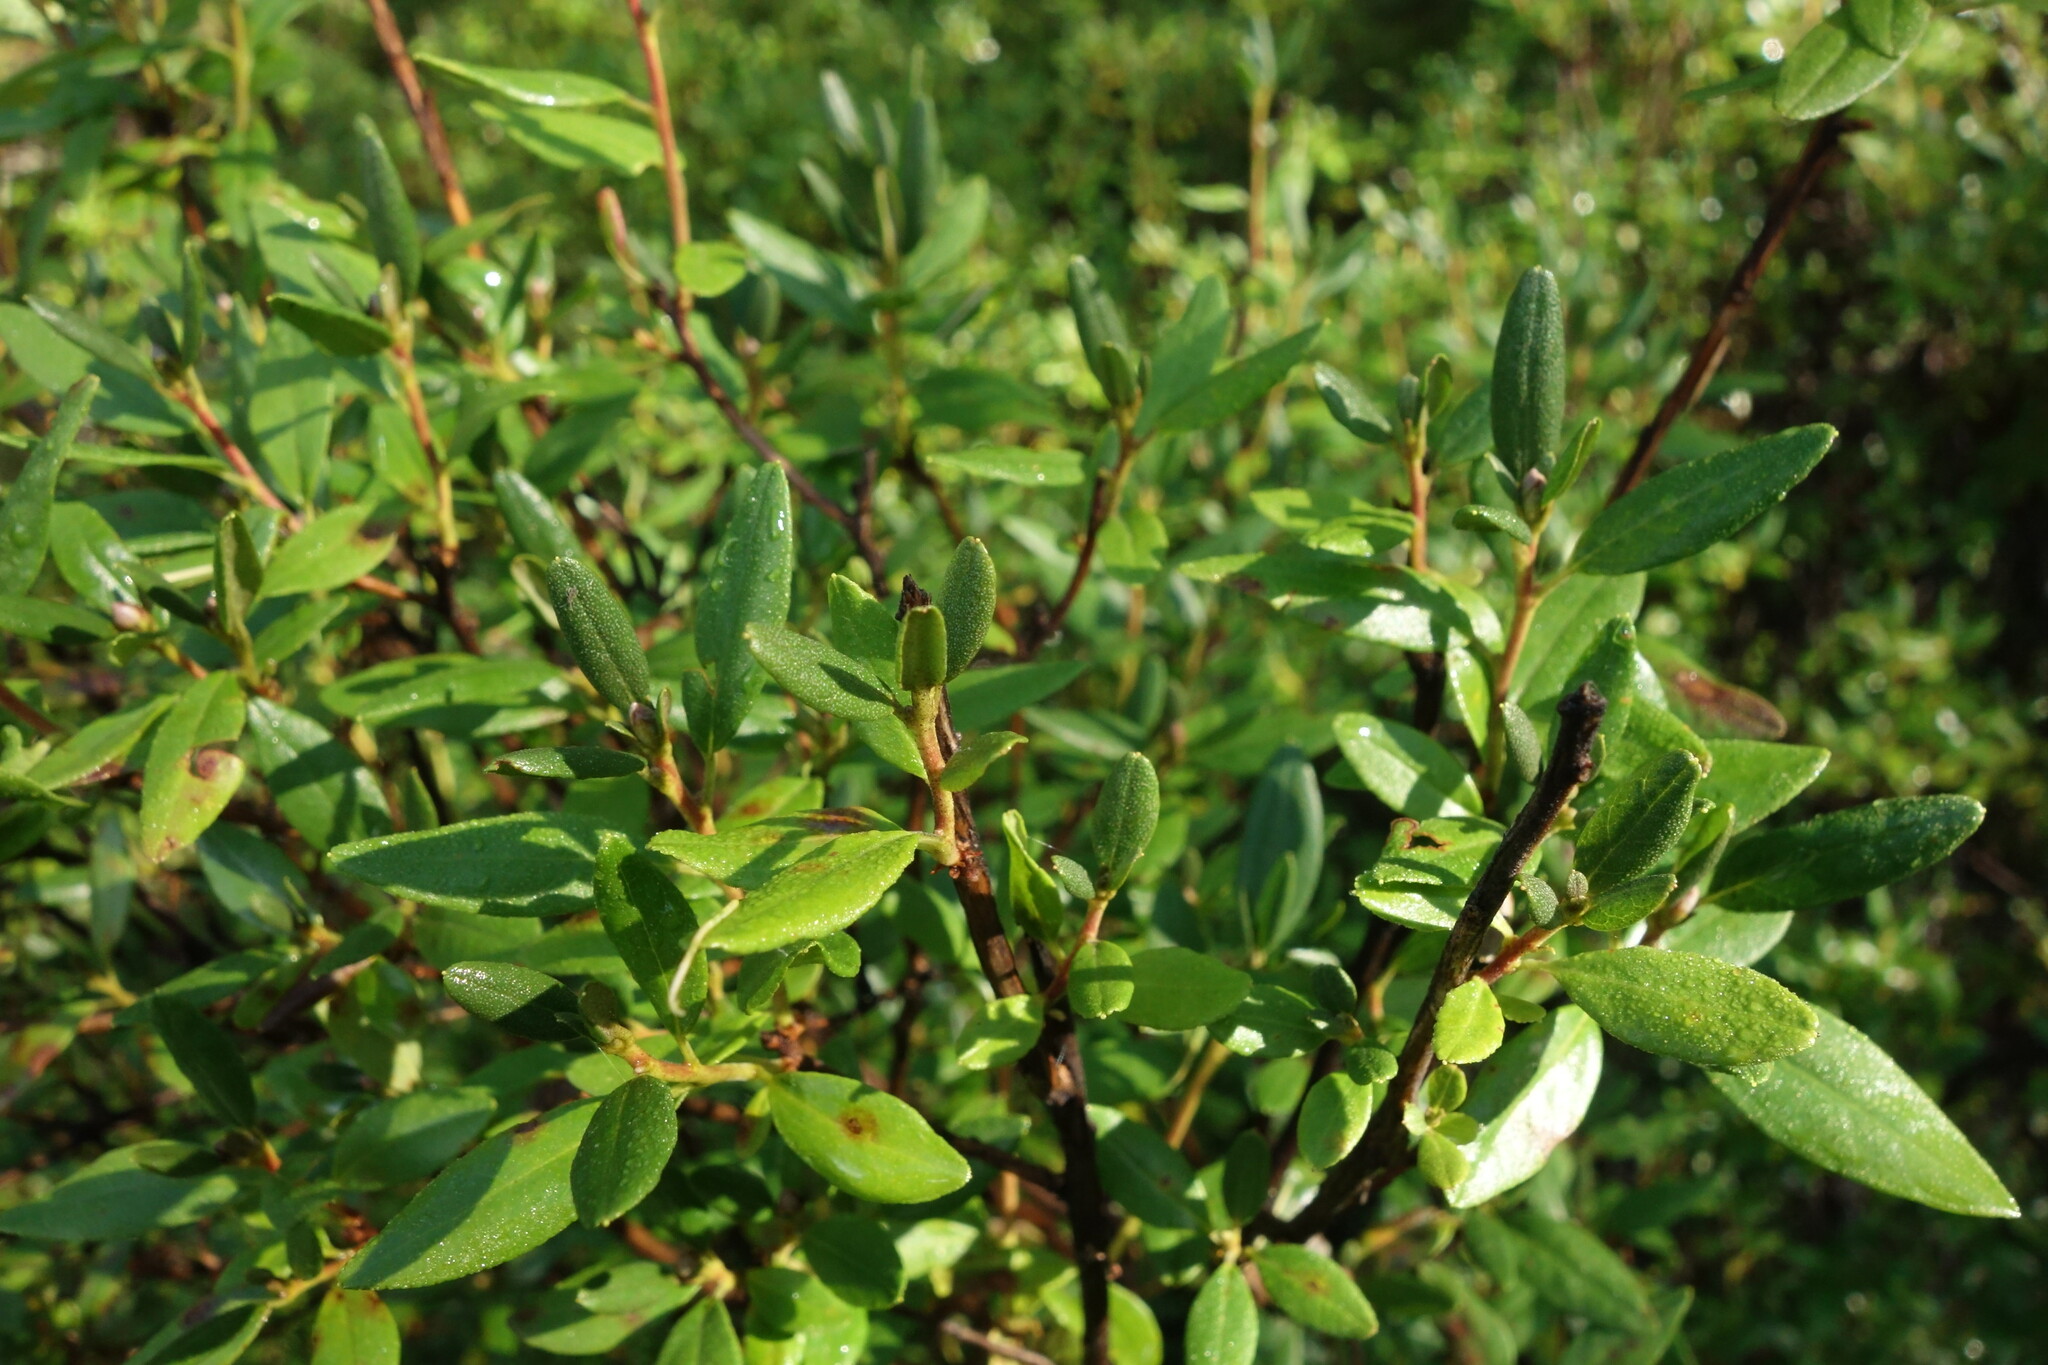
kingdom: Plantae
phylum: Tracheophyta
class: Magnoliopsida
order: Ericales
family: Ericaceae
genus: Rhododendron
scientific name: Rhododendron dauricum
